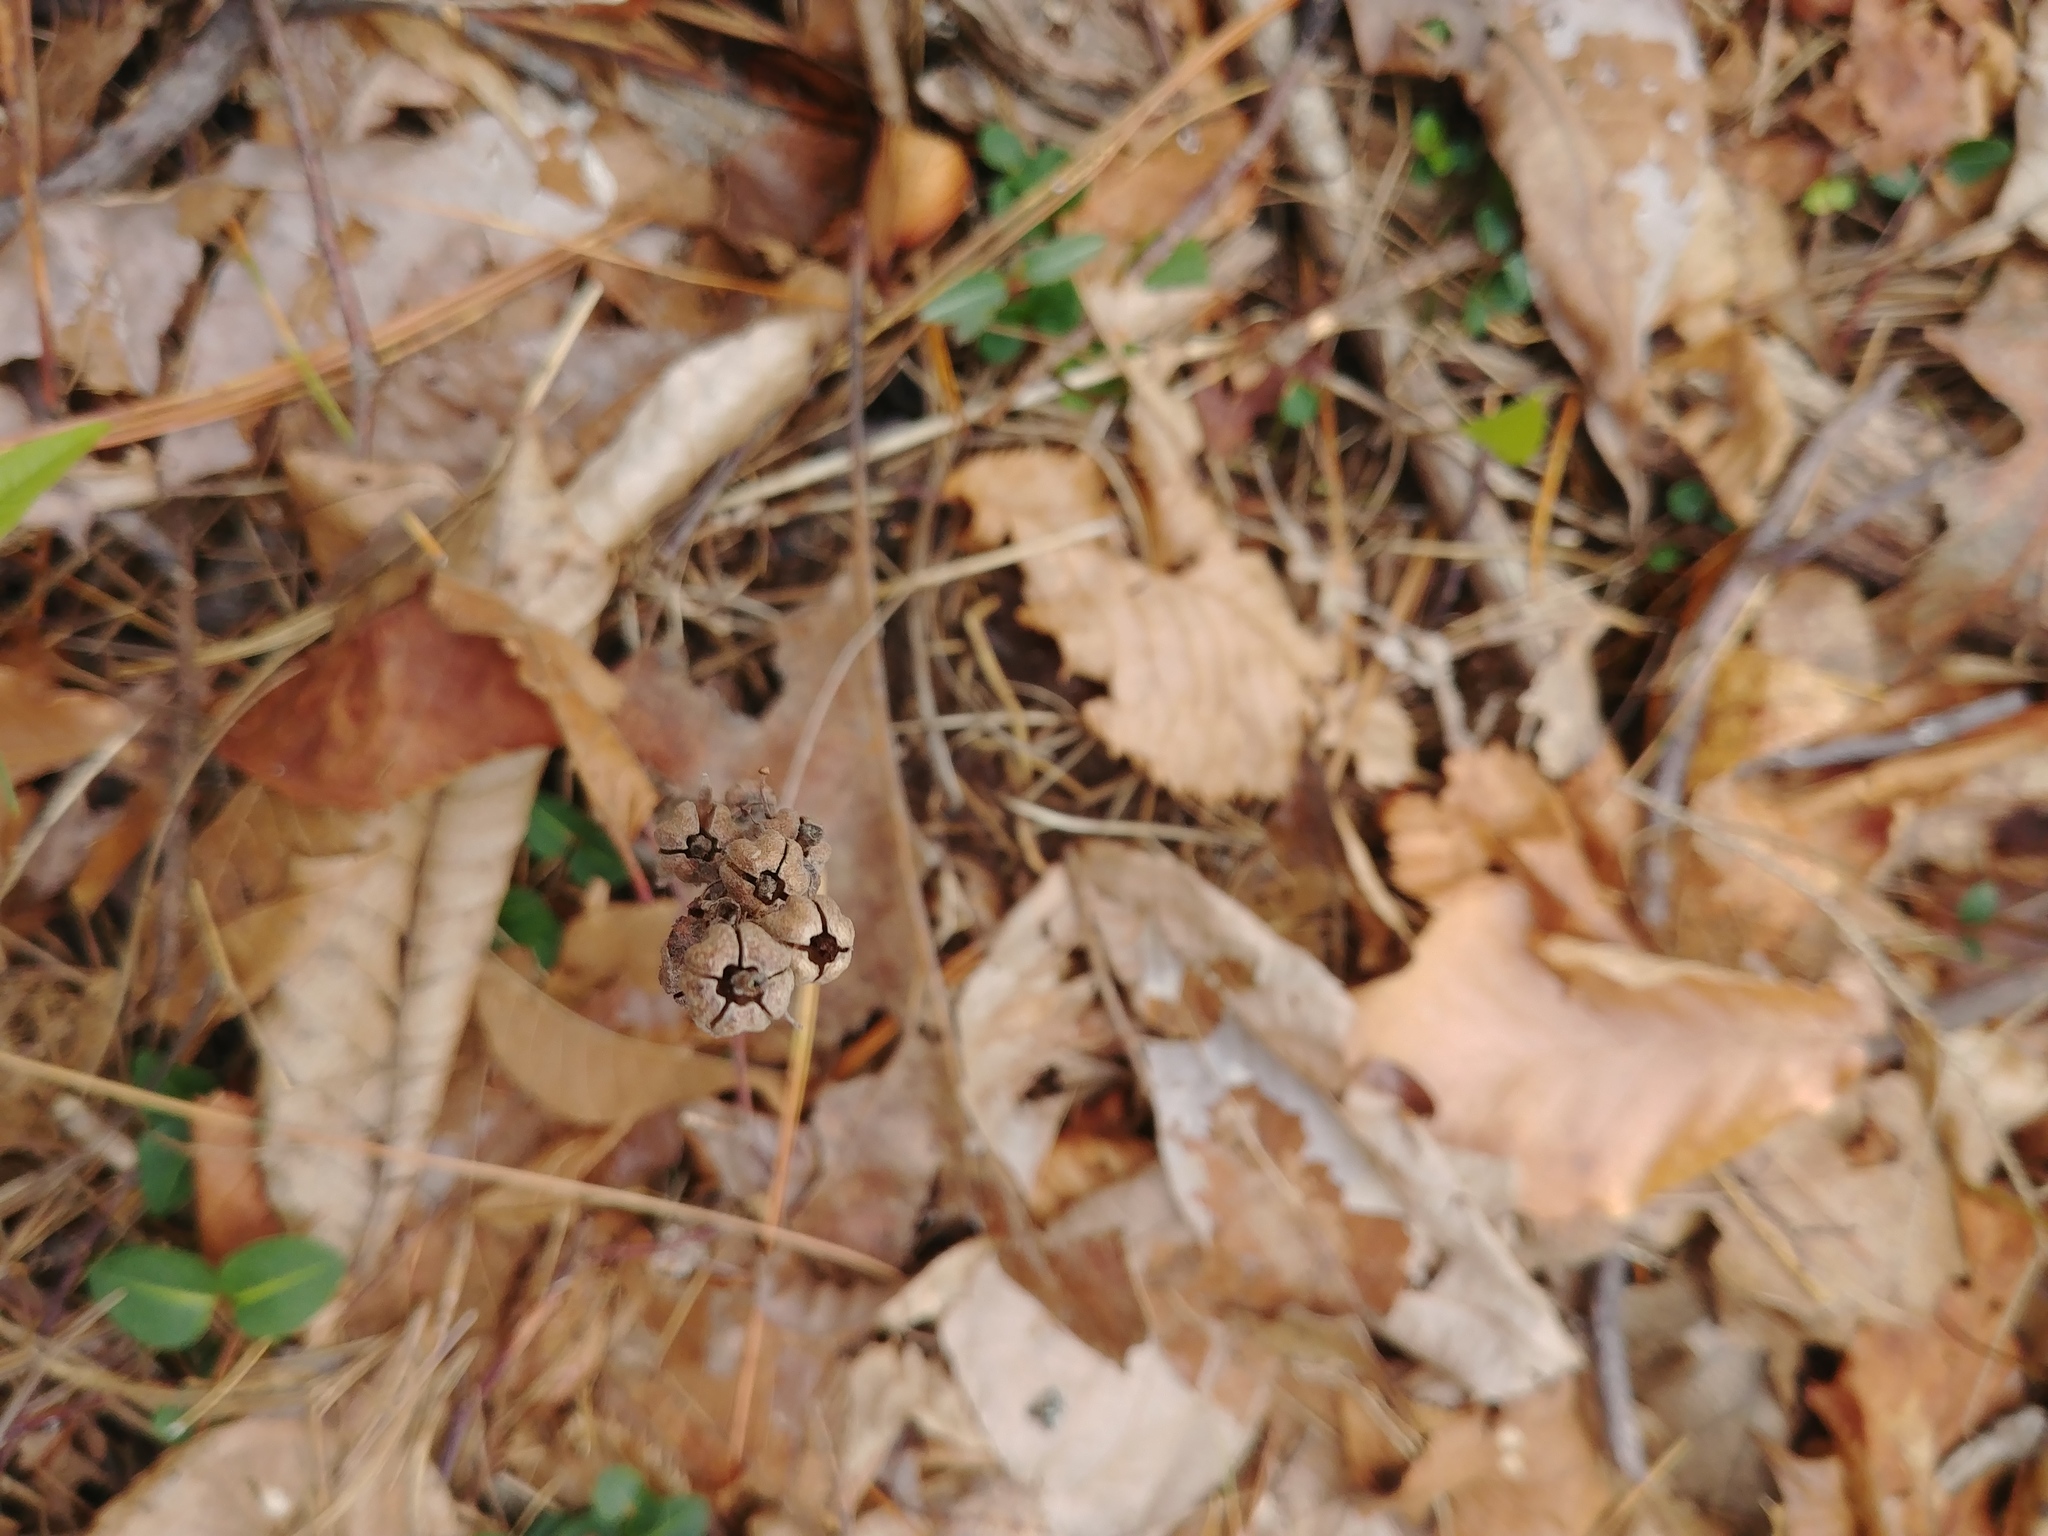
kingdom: Plantae
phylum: Tracheophyta
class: Magnoliopsida
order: Ericales
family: Ericaceae
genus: Hypopitys
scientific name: Hypopitys monotropa
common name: Yellow bird's-nest
